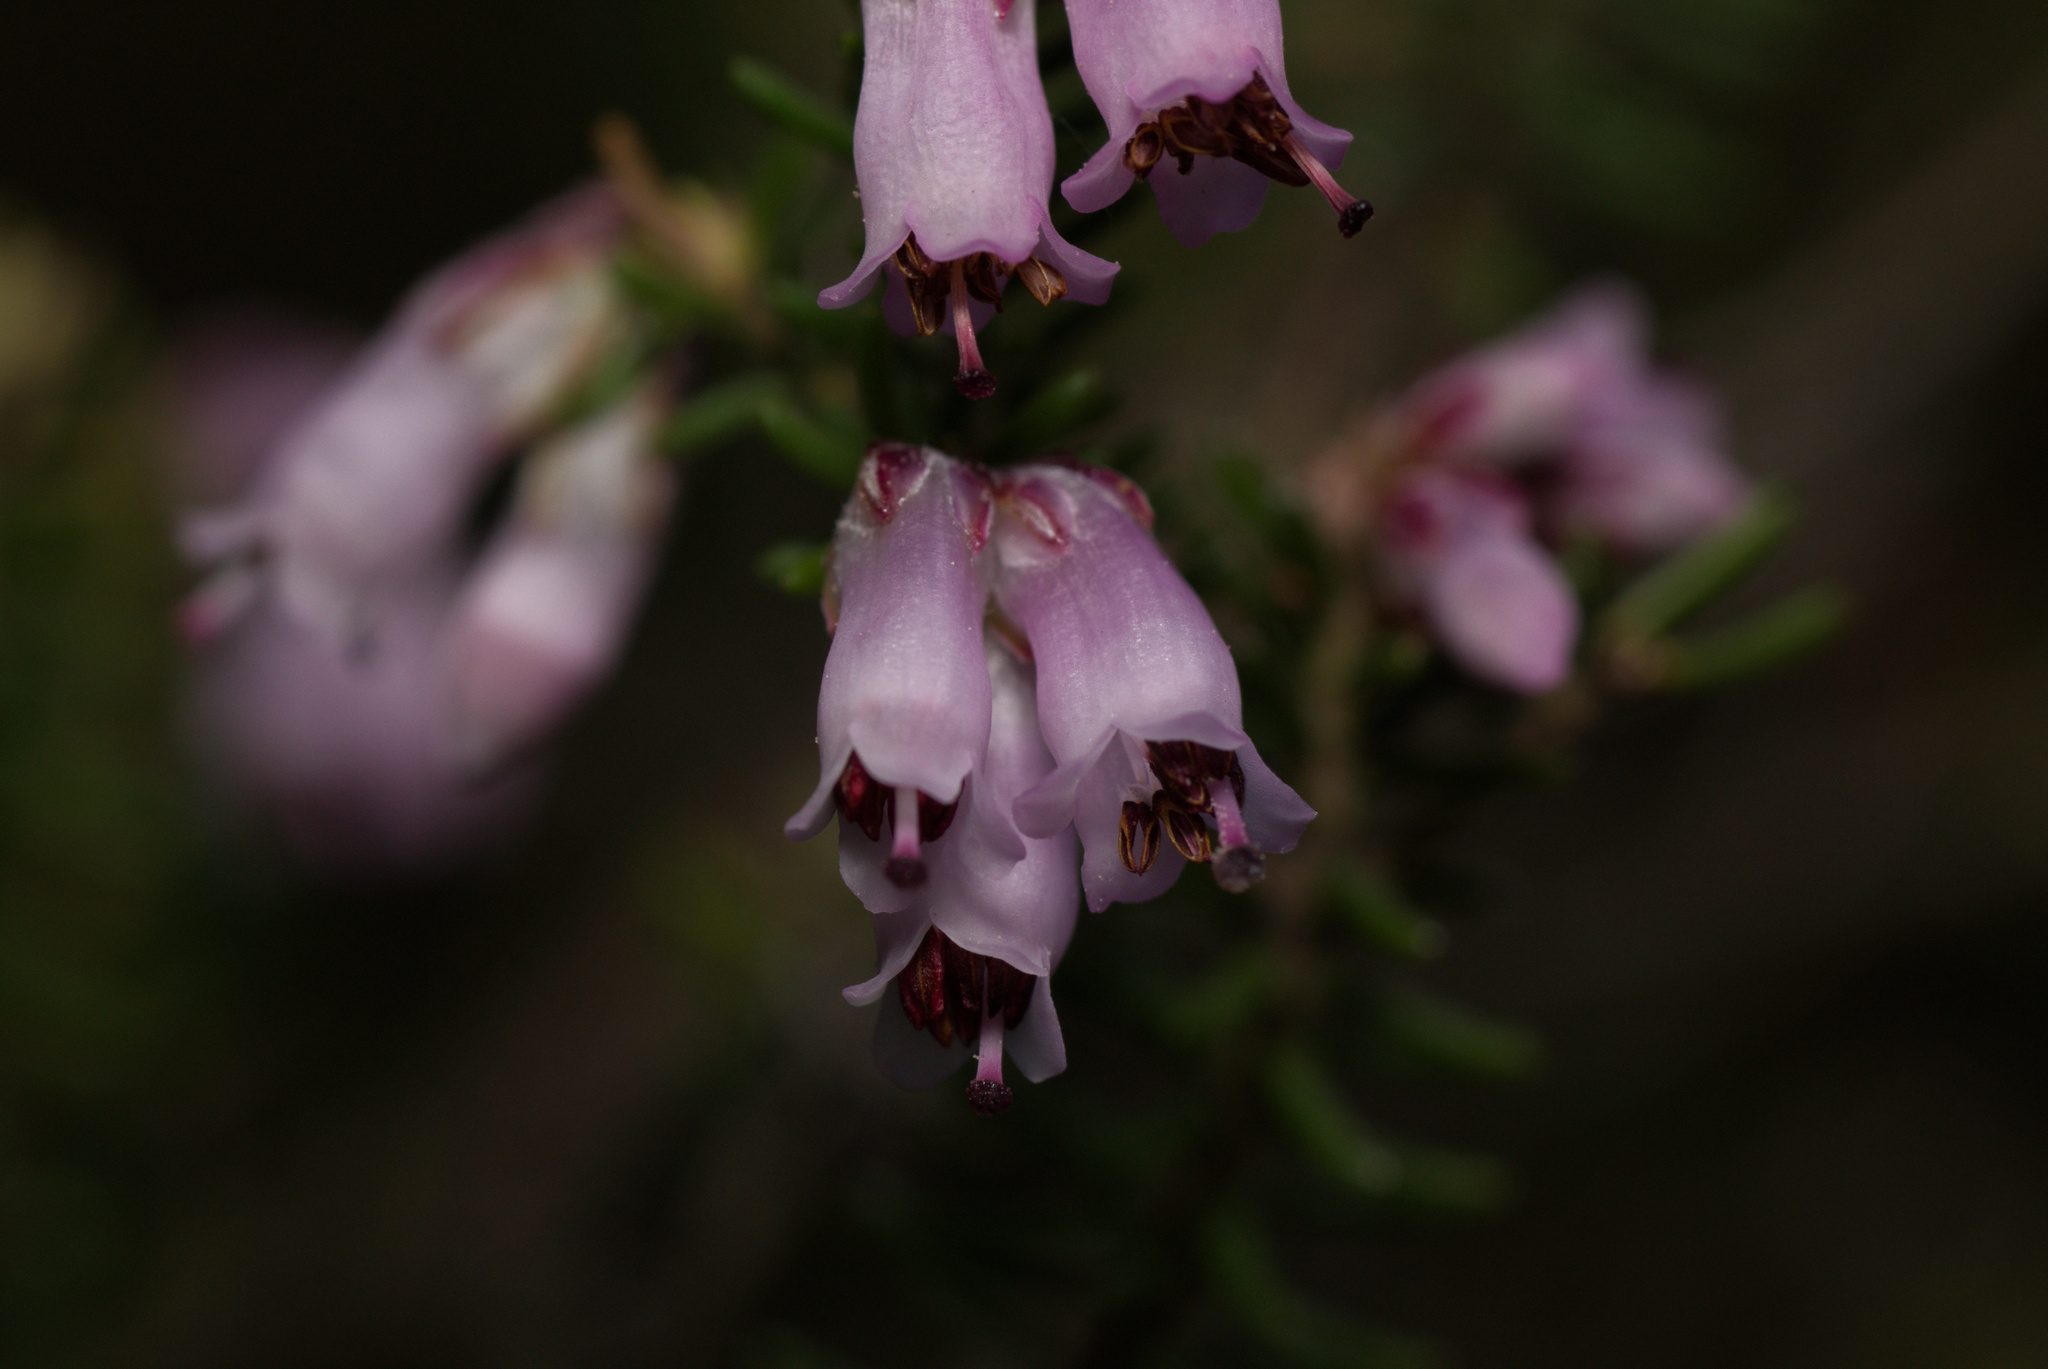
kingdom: Plantae
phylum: Tracheophyta
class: Magnoliopsida
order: Ericales
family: Ericaceae
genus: Erica
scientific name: Erica australis
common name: Spanish heath
